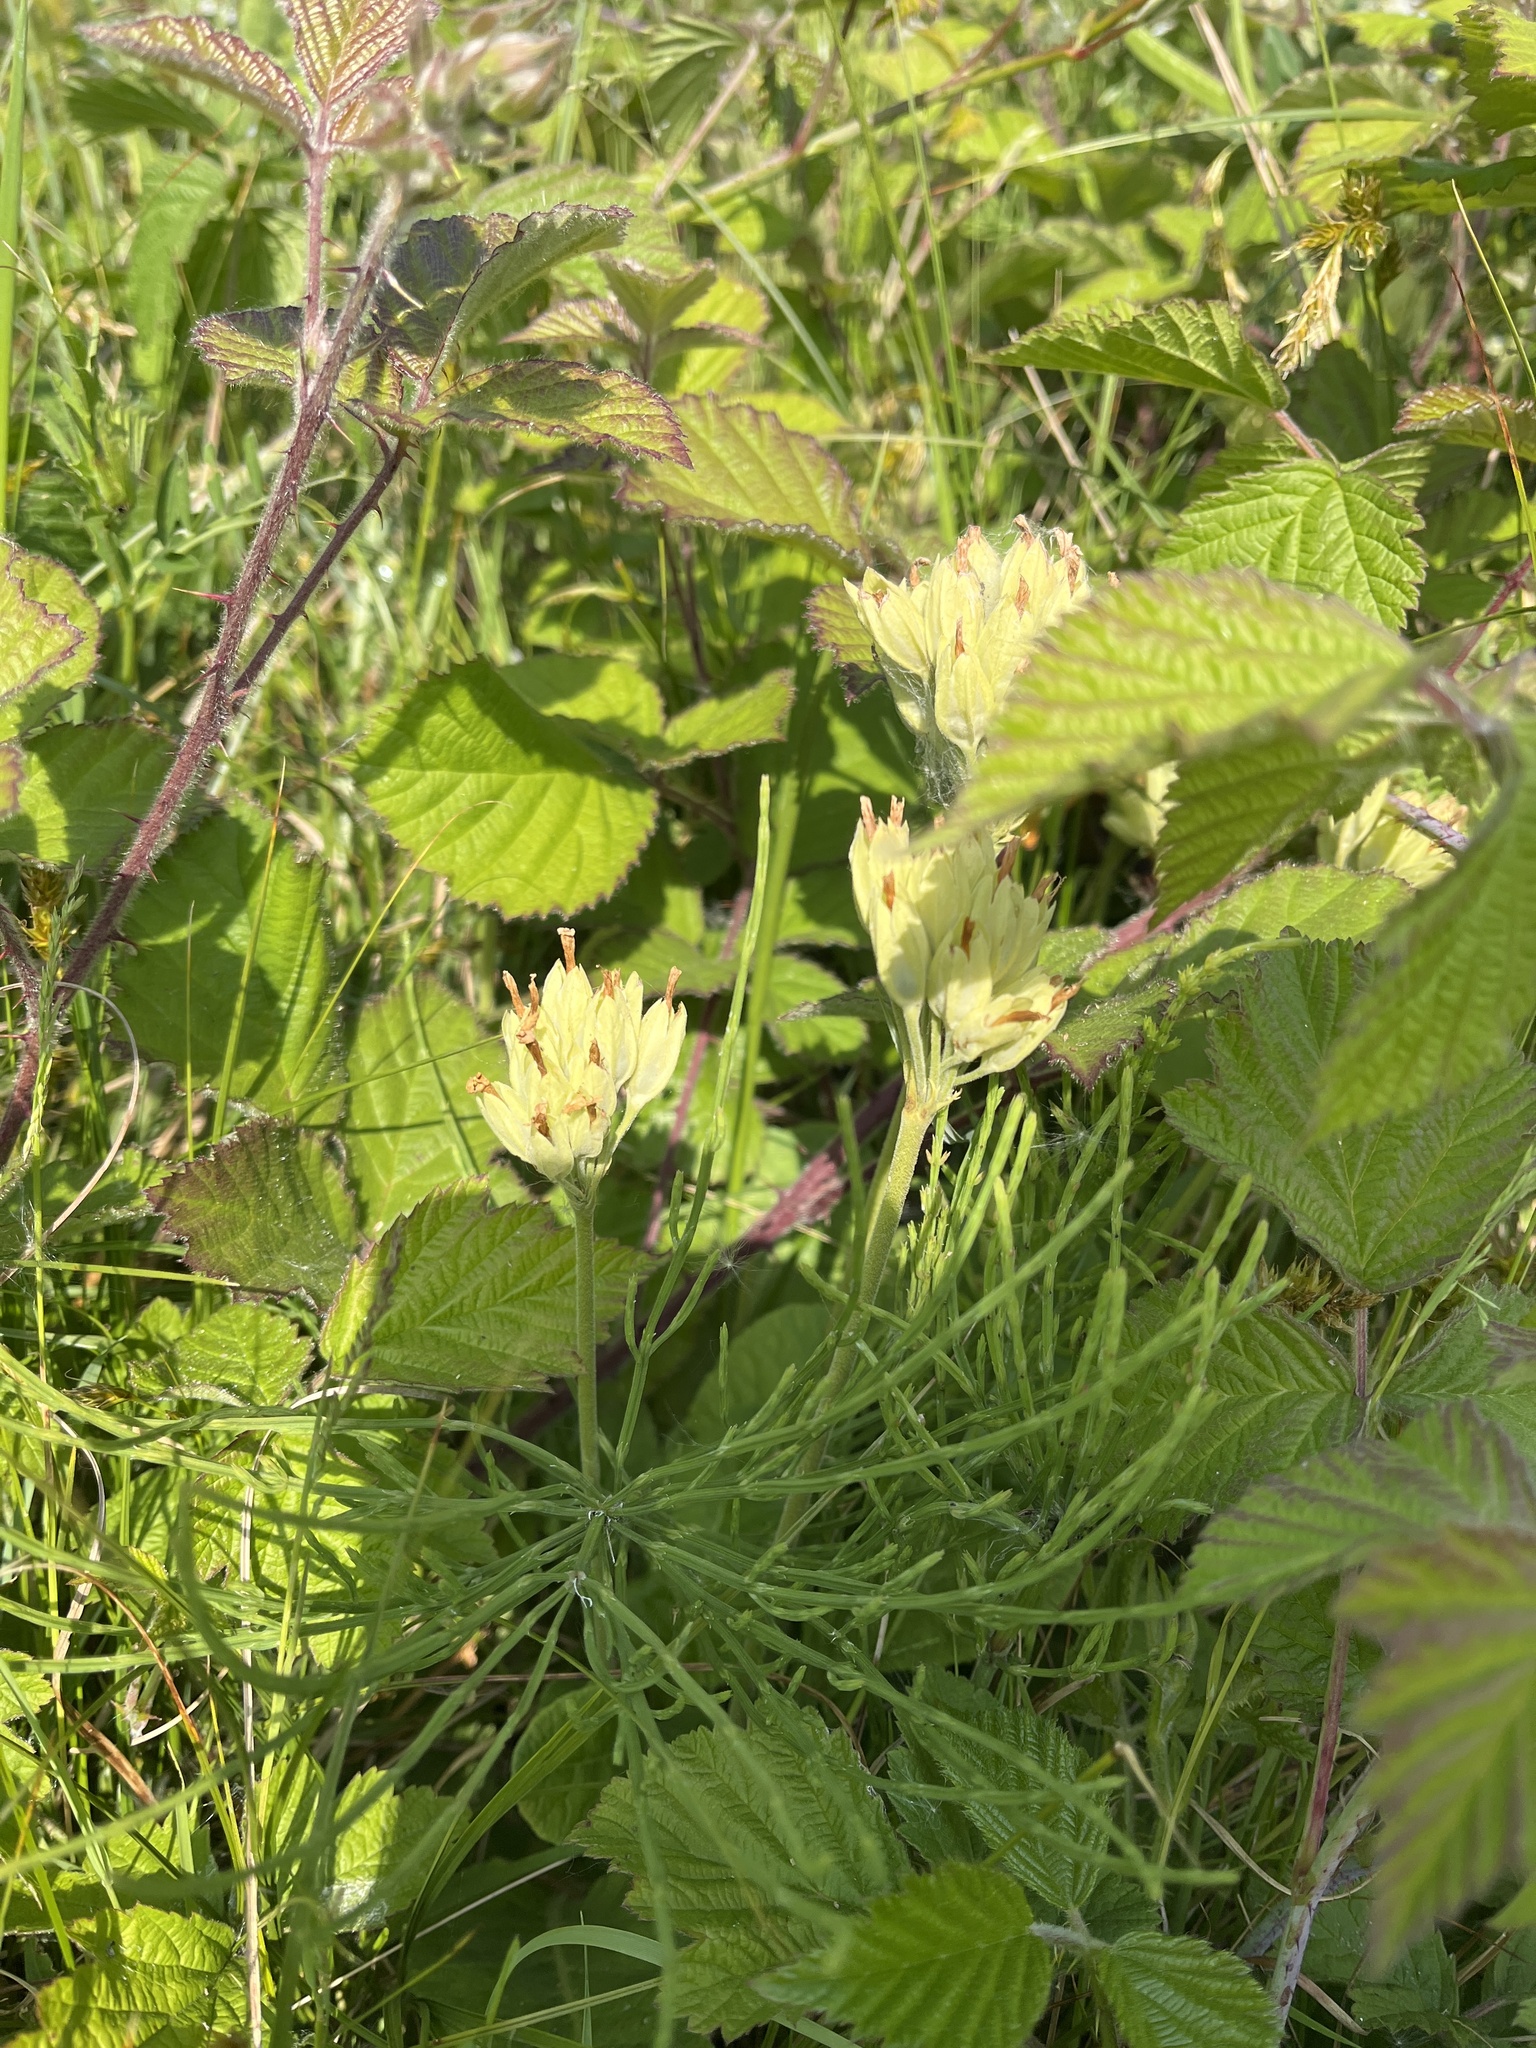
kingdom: Plantae
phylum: Tracheophyta
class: Magnoliopsida
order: Ericales
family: Primulaceae
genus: Primula
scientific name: Primula veris
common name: Cowslip
